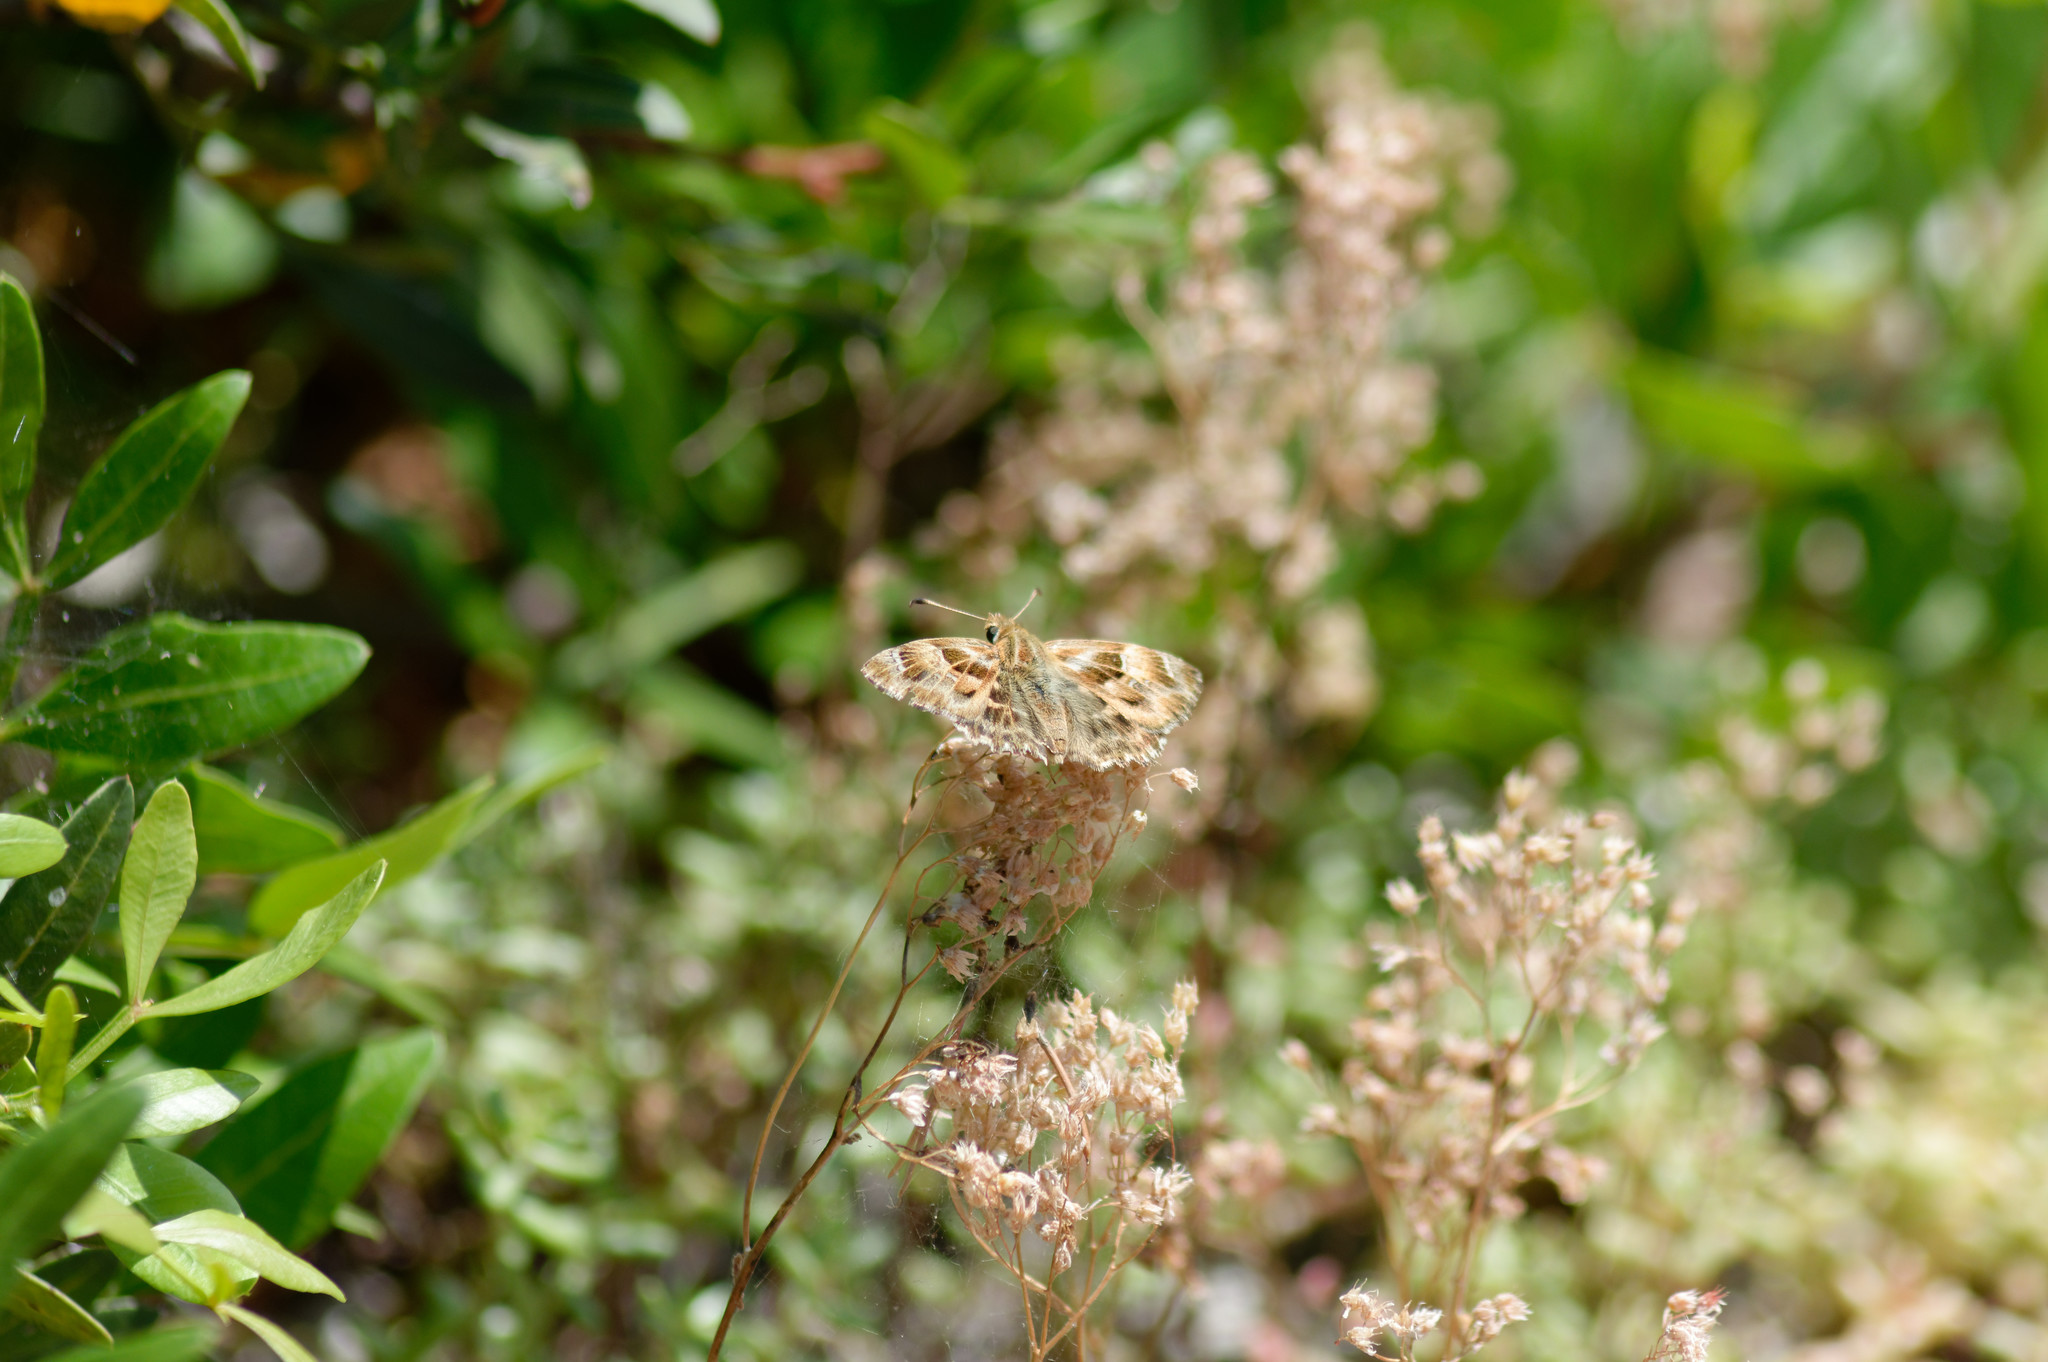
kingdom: Animalia
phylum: Arthropoda
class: Insecta
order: Lepidoptera
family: Hesperiidae
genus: Carcharodus
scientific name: Carcharodus alceae
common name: Mallow skipper
